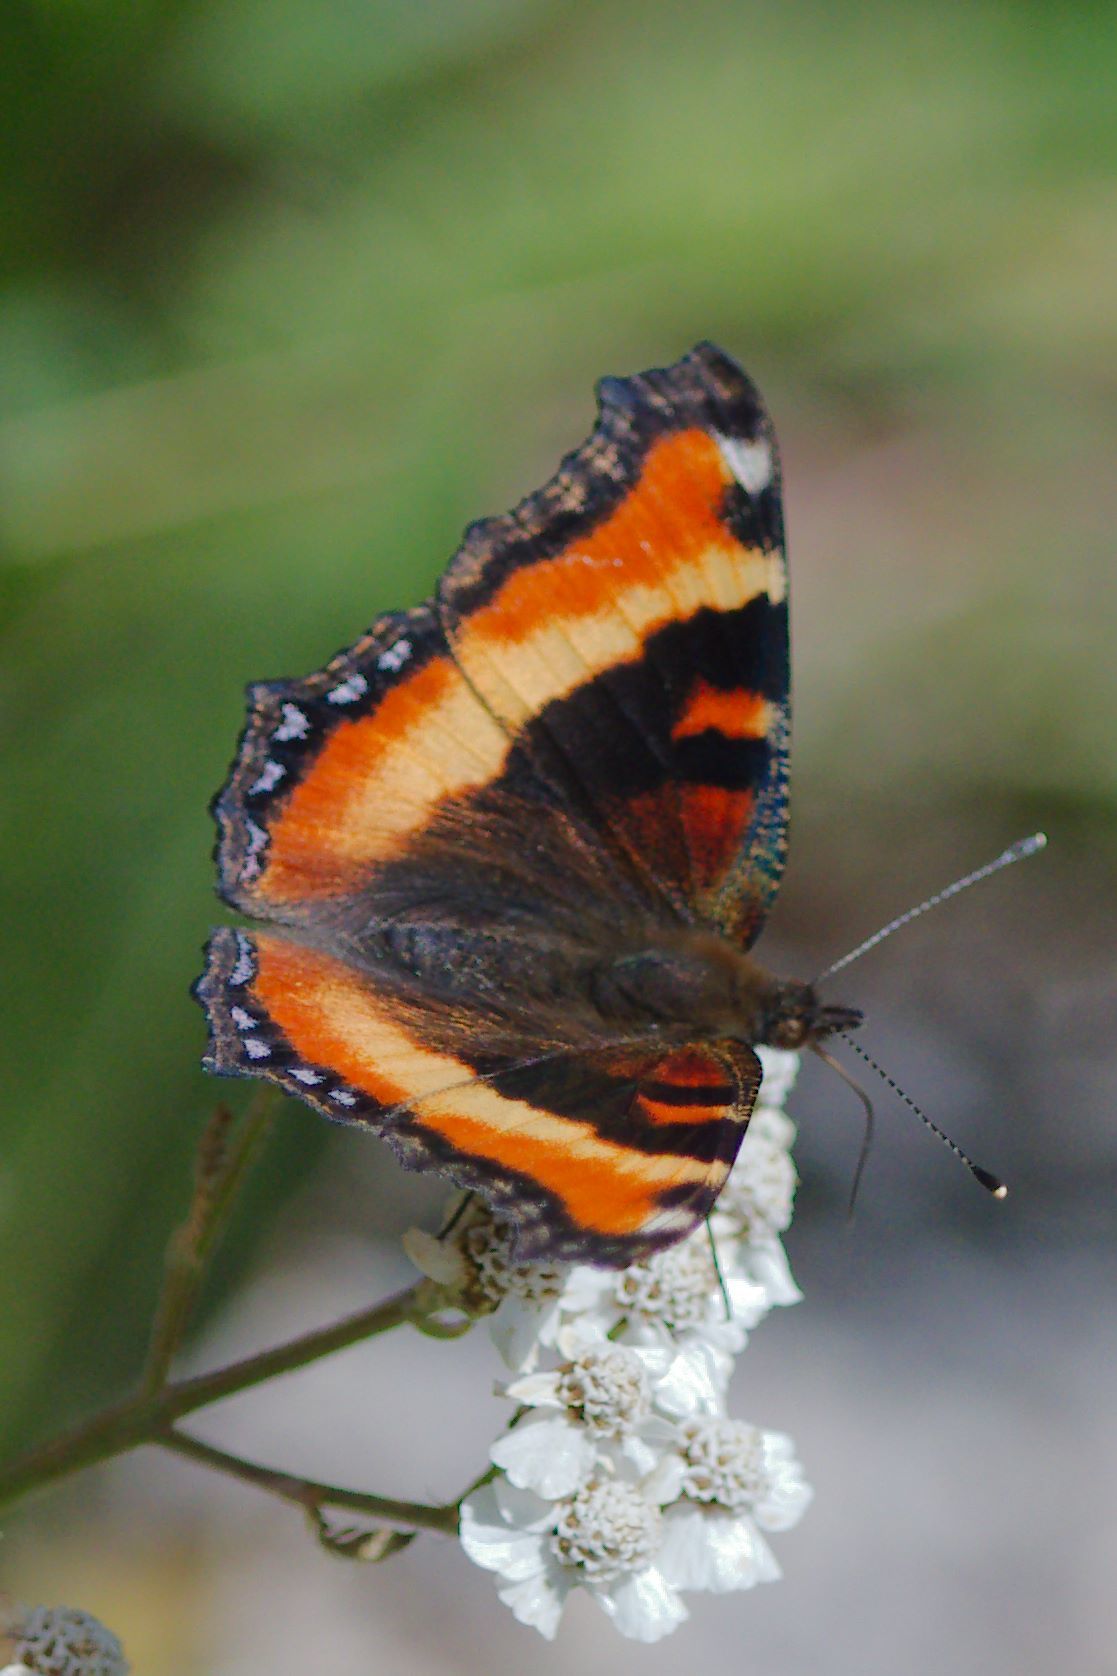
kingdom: Animalia
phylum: Arthropoda
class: Insecta
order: Lepidoptera
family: Nymphalidae
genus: Aglais
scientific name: Aglais milberti
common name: Milbert's tortoiseshell
